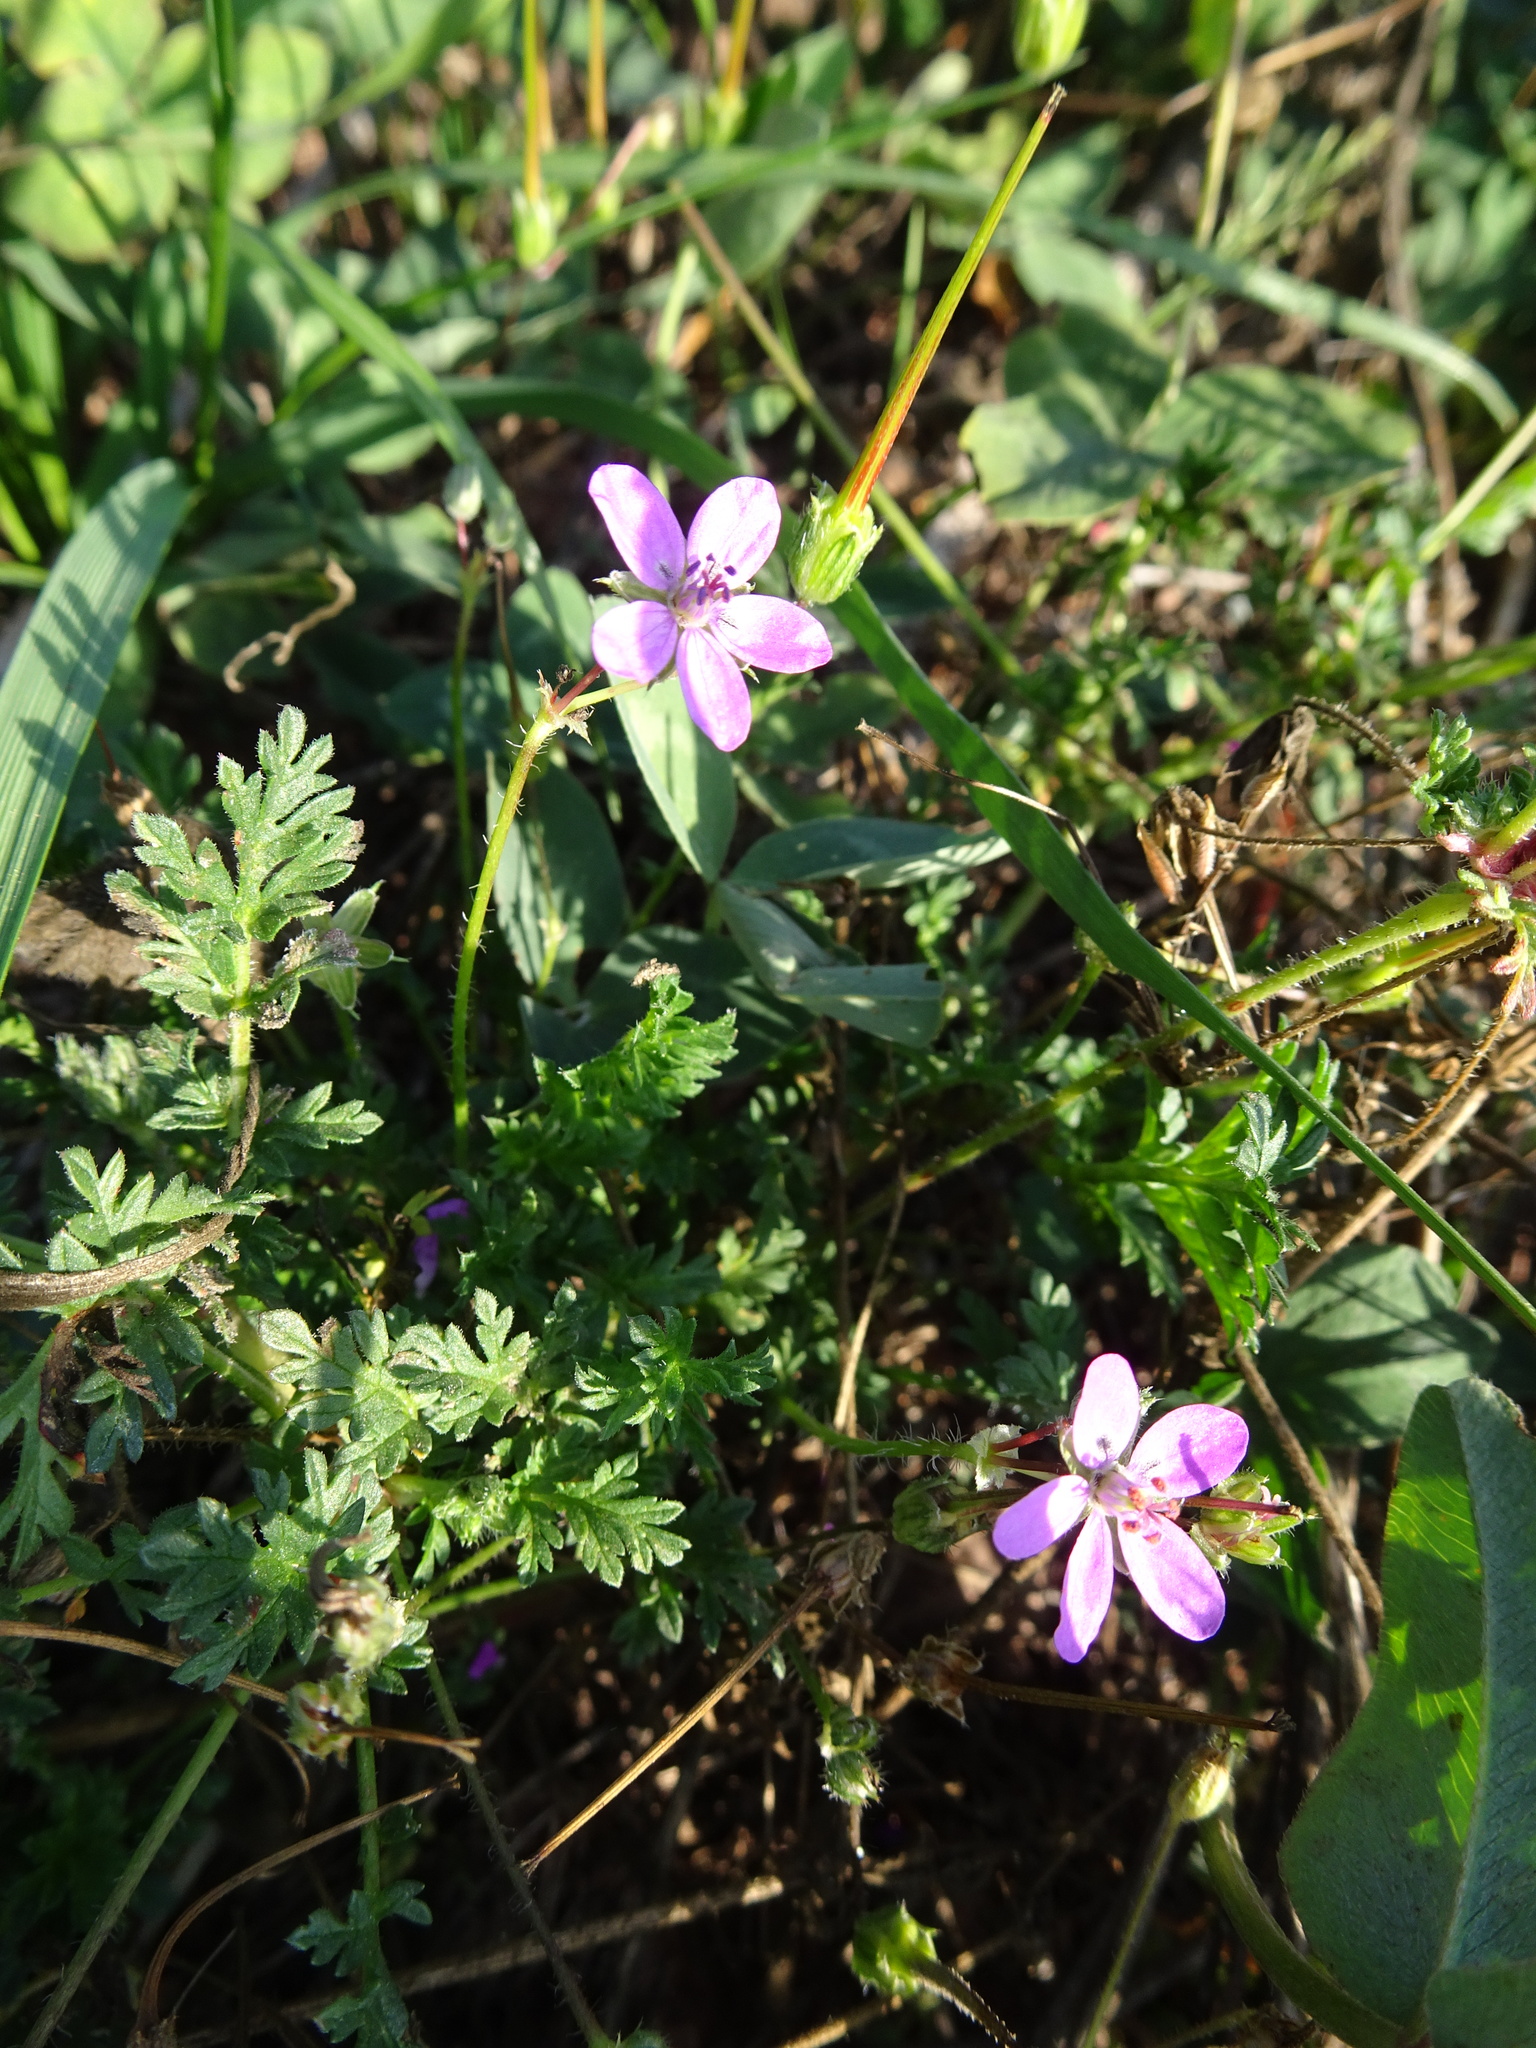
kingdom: Plantae
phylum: Tracheophyta
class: Magnoliopsida
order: Geraniales
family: Geraniaceae
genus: Erodium
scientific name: Erodium cicutarium
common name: Common stork's-bill
